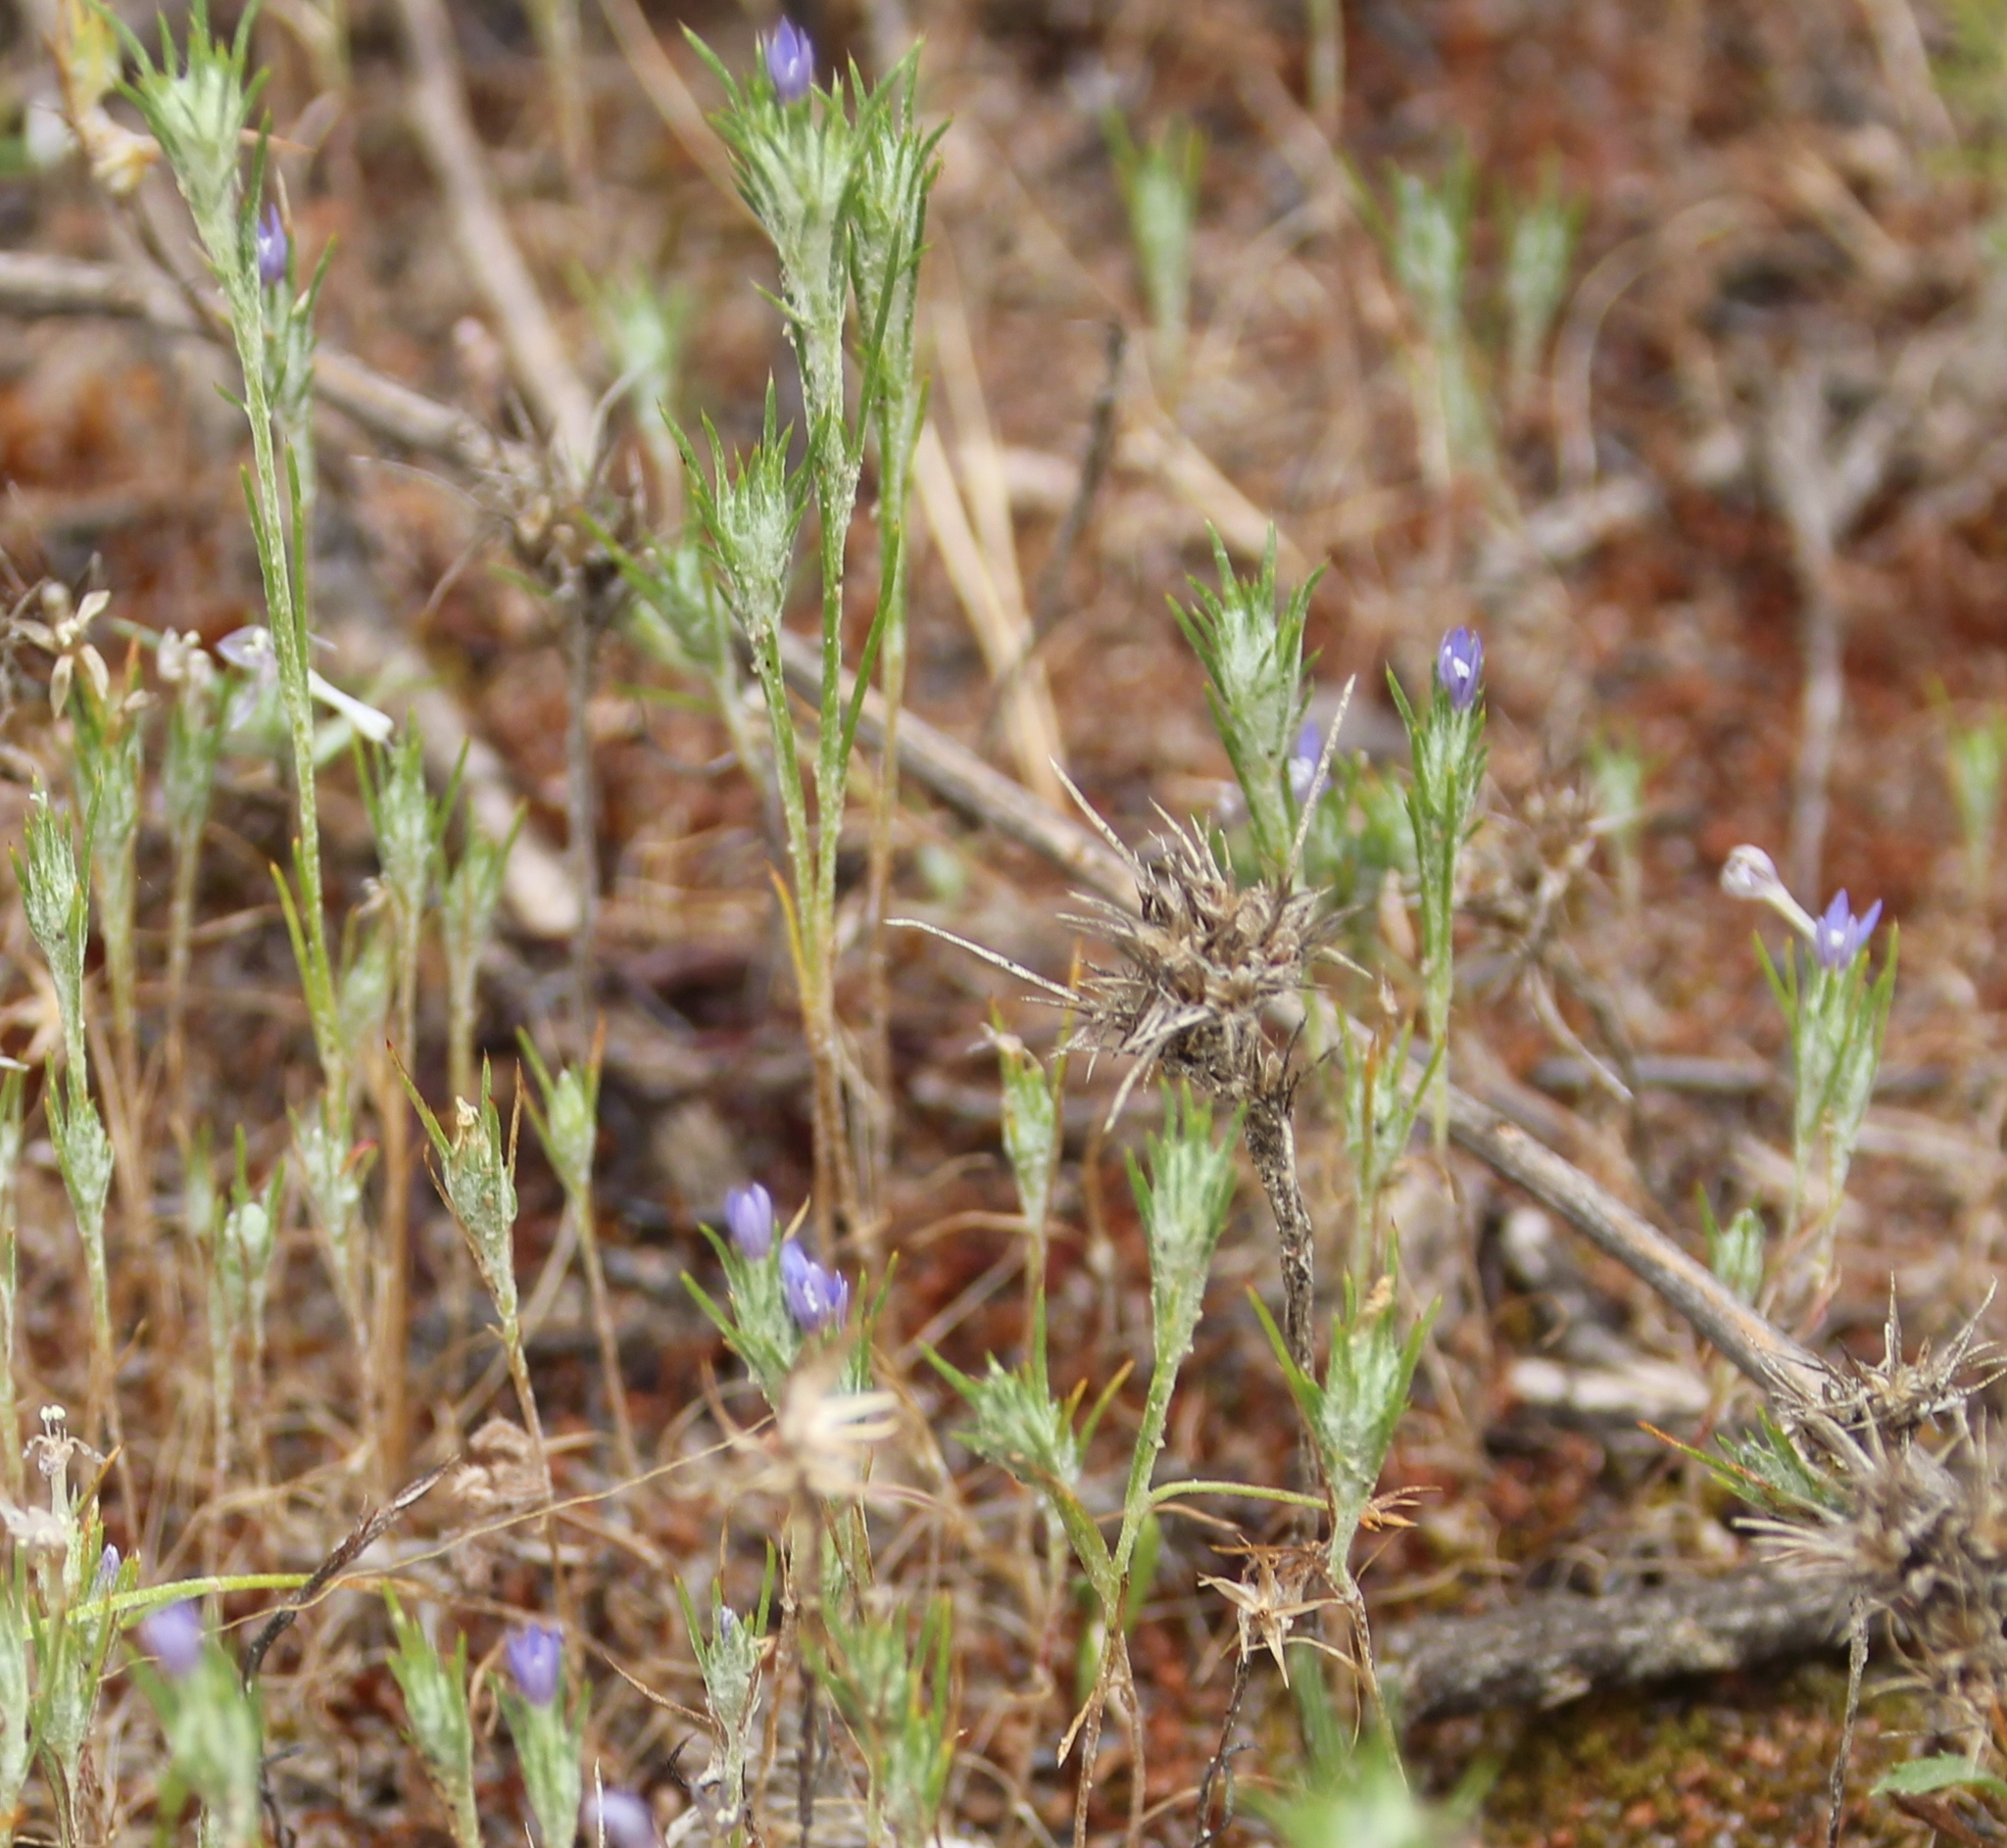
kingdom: Plantae
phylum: Tracheophyta
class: Magnoliopsida
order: Ericales
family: Polemoniaceae
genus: Eriastrum
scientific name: Eriastrum filifolium
